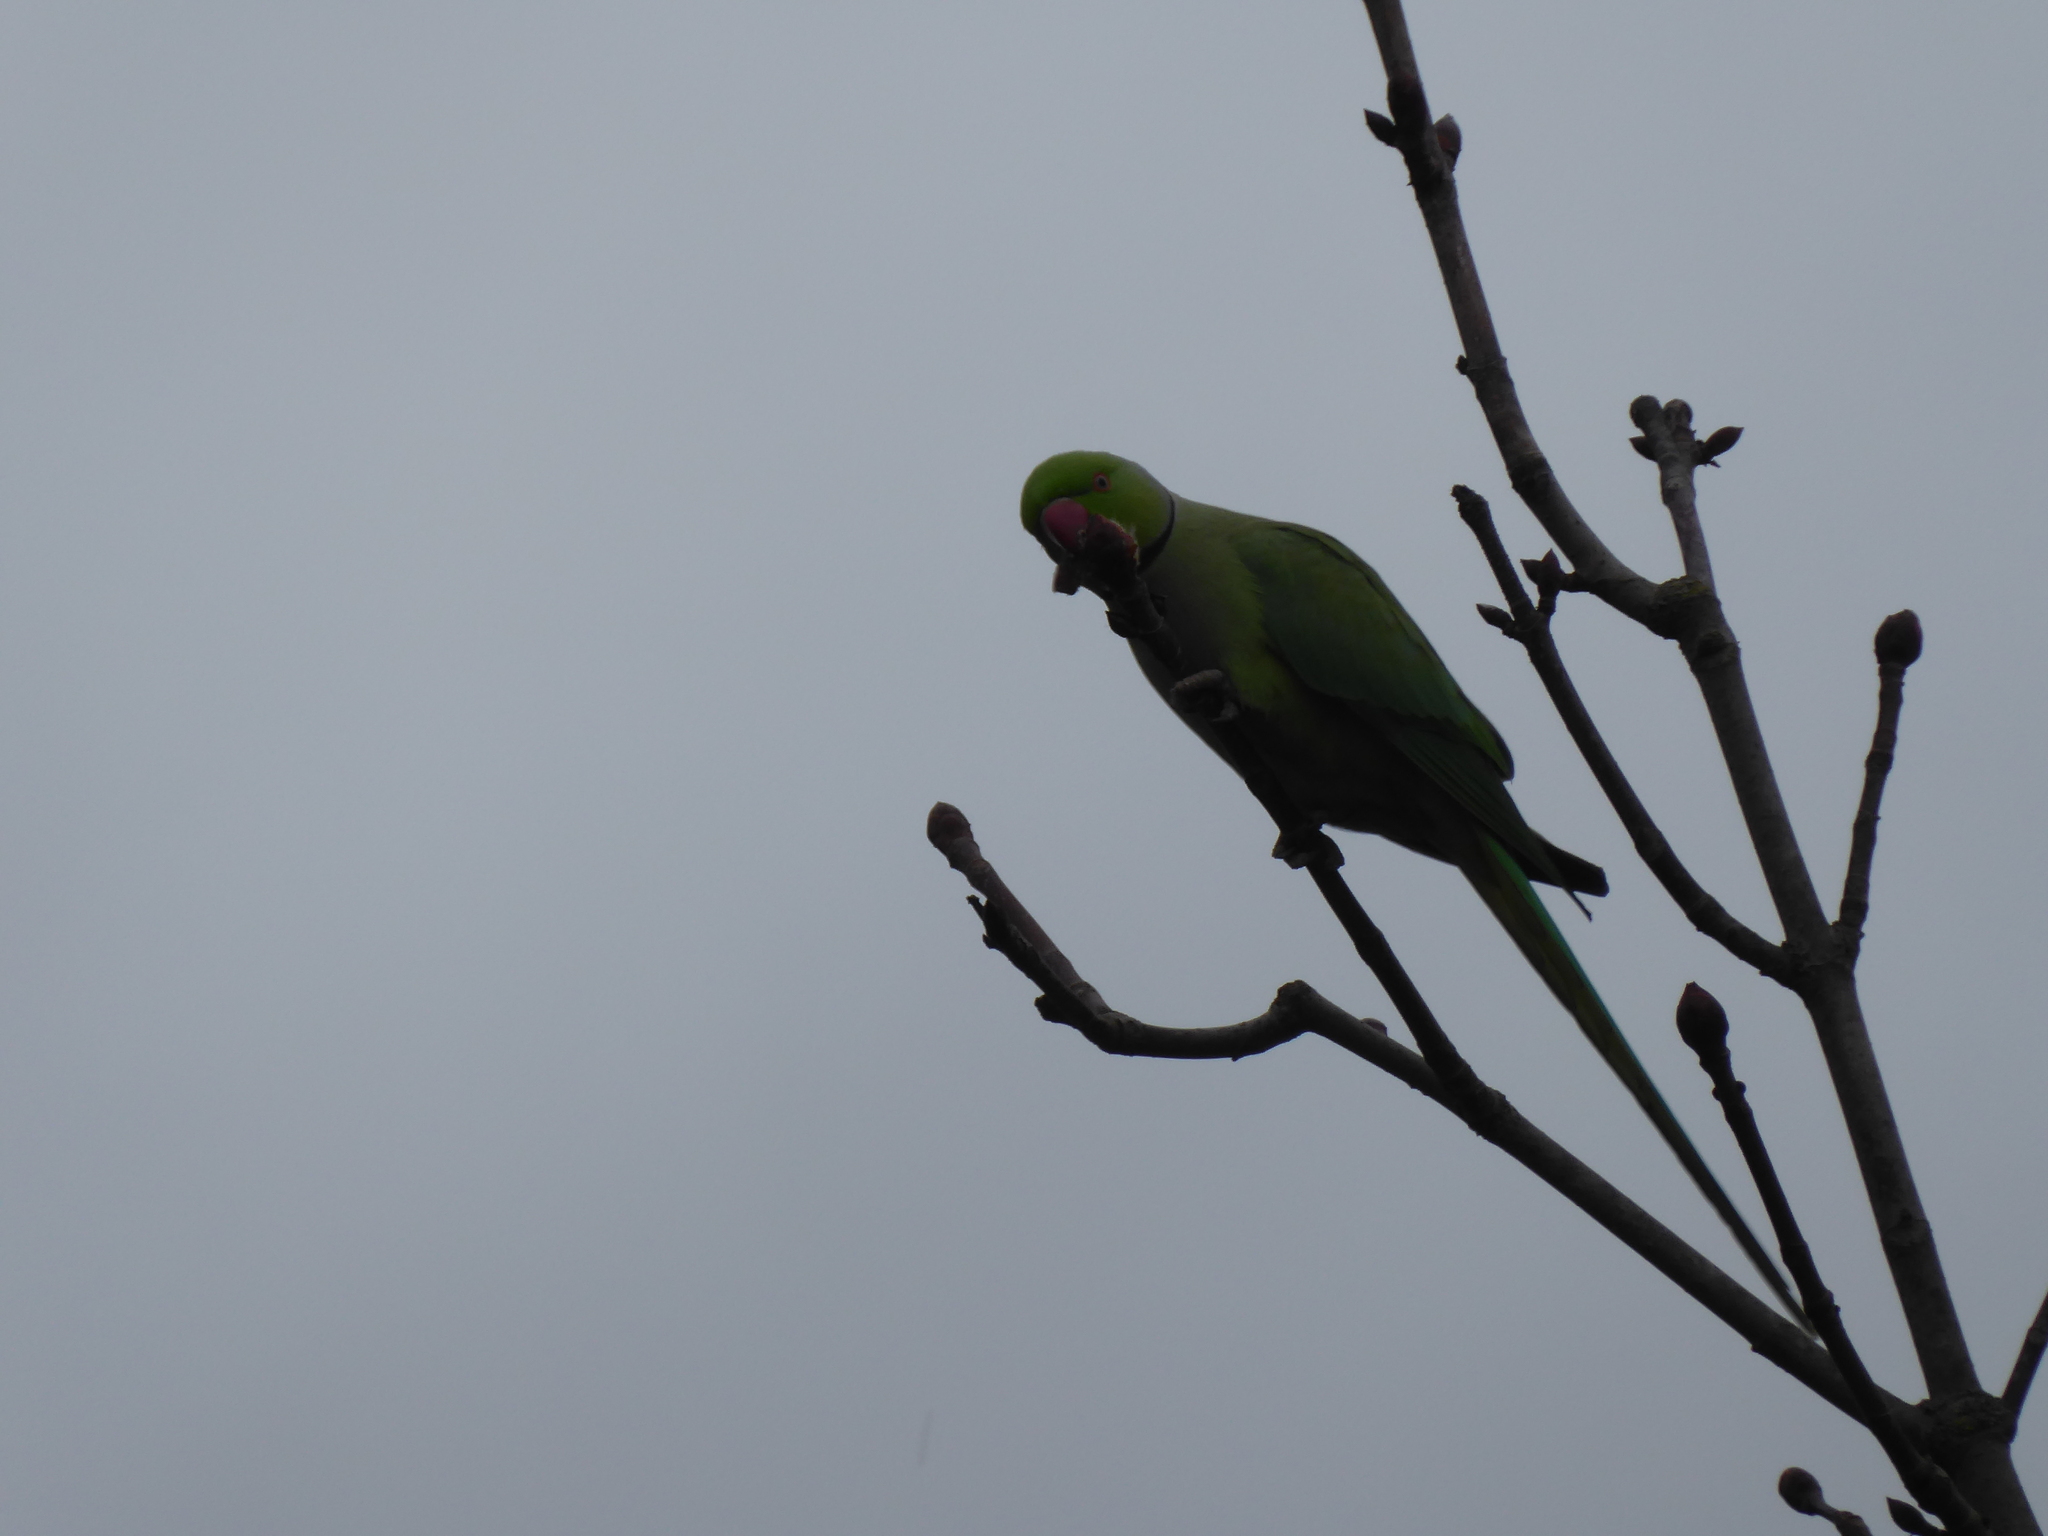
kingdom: Animalia
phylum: Chordata
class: Aves
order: Psittaciformes
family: Psittacidae
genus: Psittacula
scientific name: Psittacula krameri
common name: Rose-ringed parakeet
